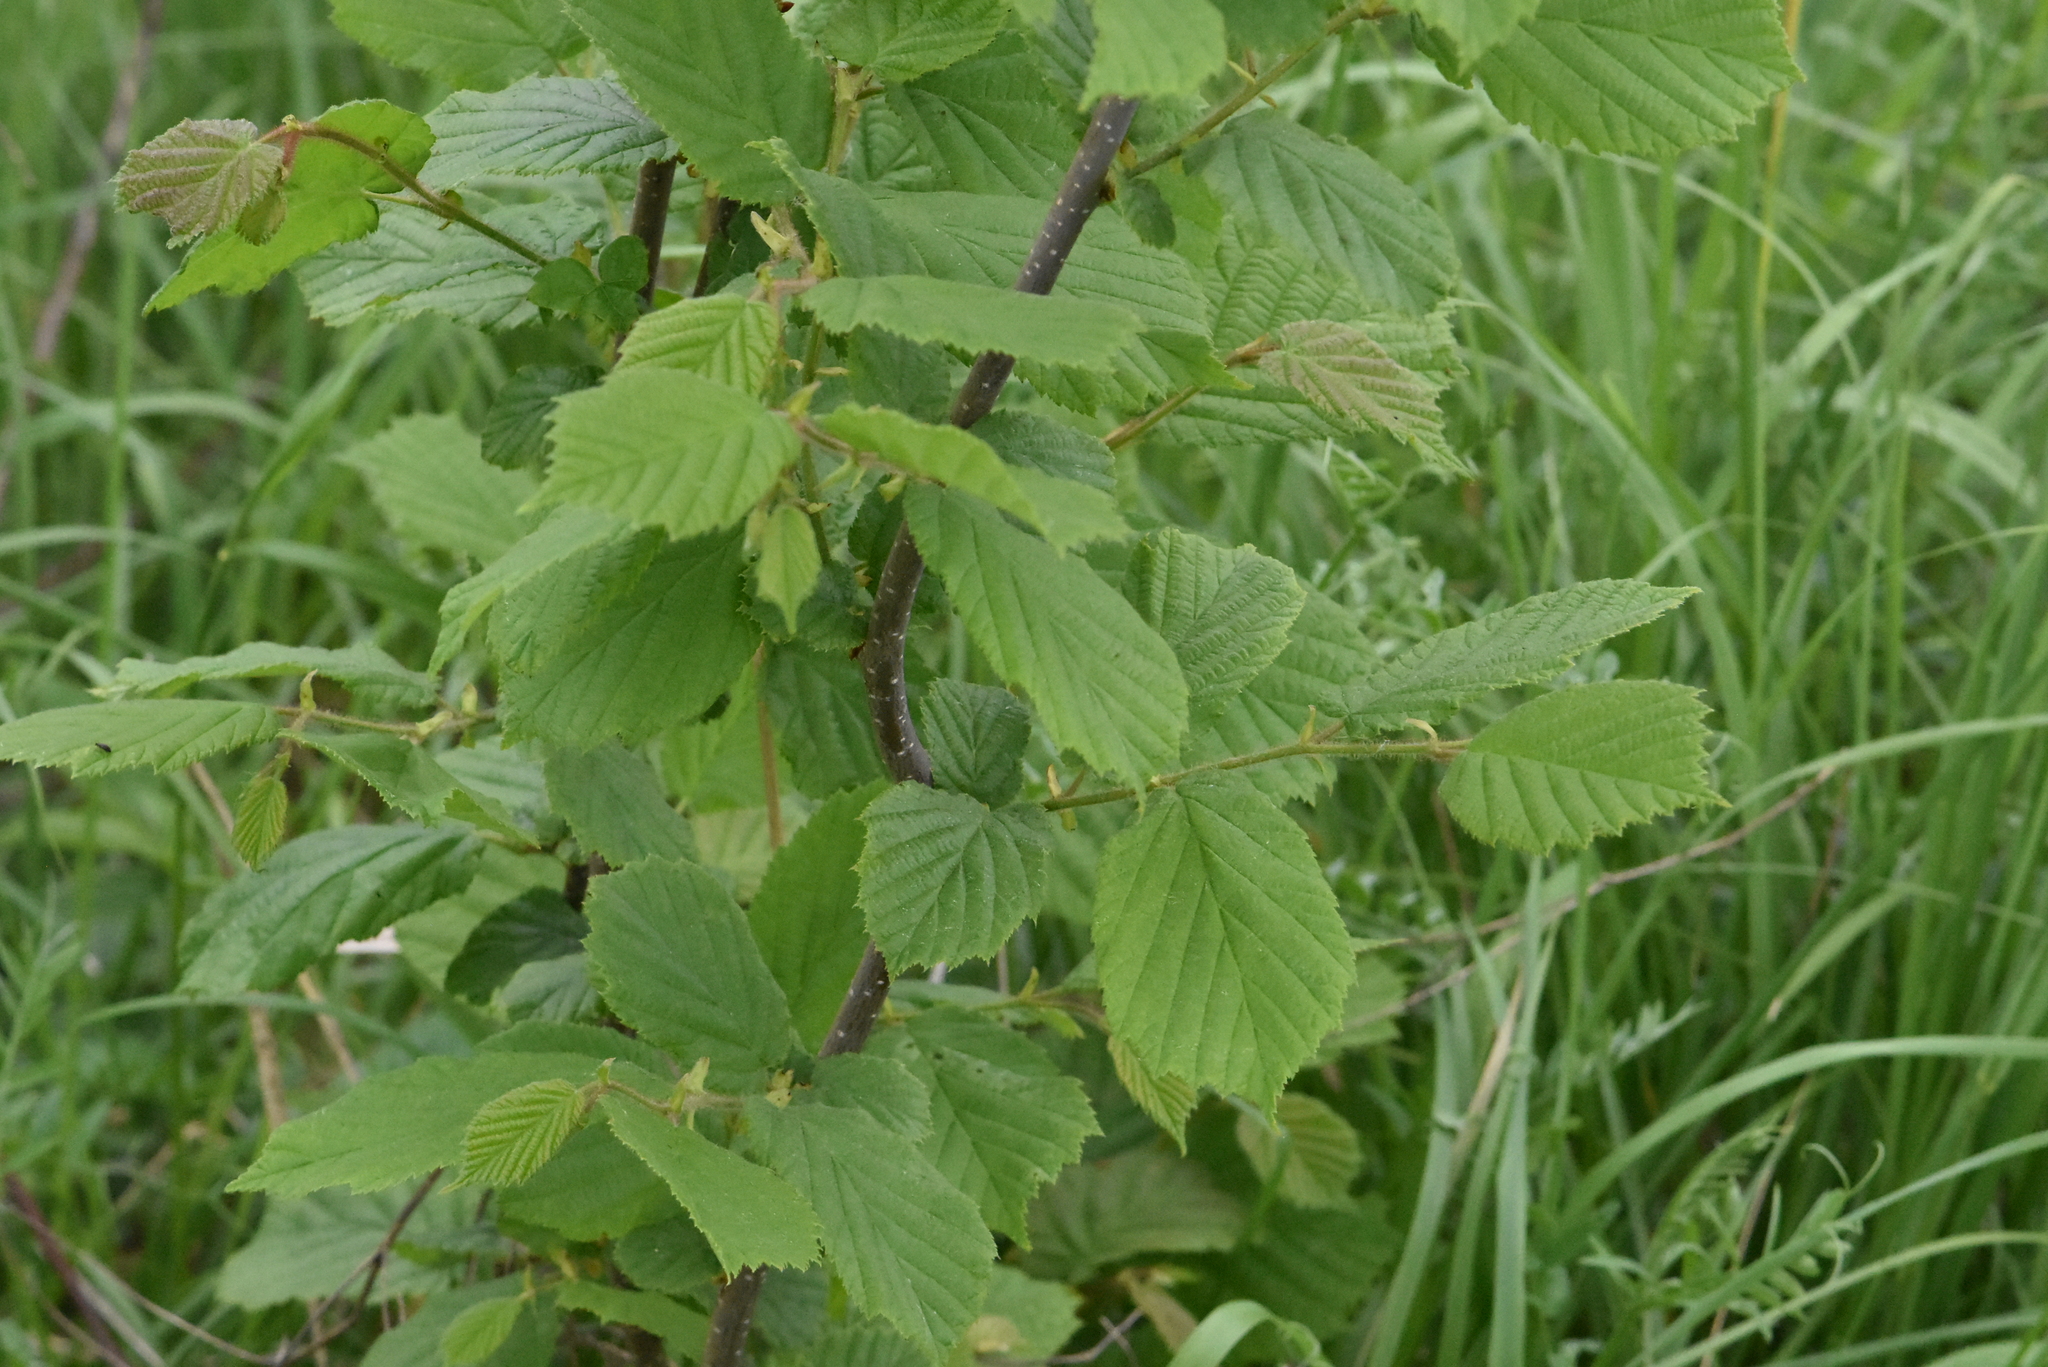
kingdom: Plantae
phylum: Tracheophyta
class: Magnoliopsida
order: Fagales
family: Betulaceae
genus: Corylus
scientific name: Corylus avellana
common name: European hazel
